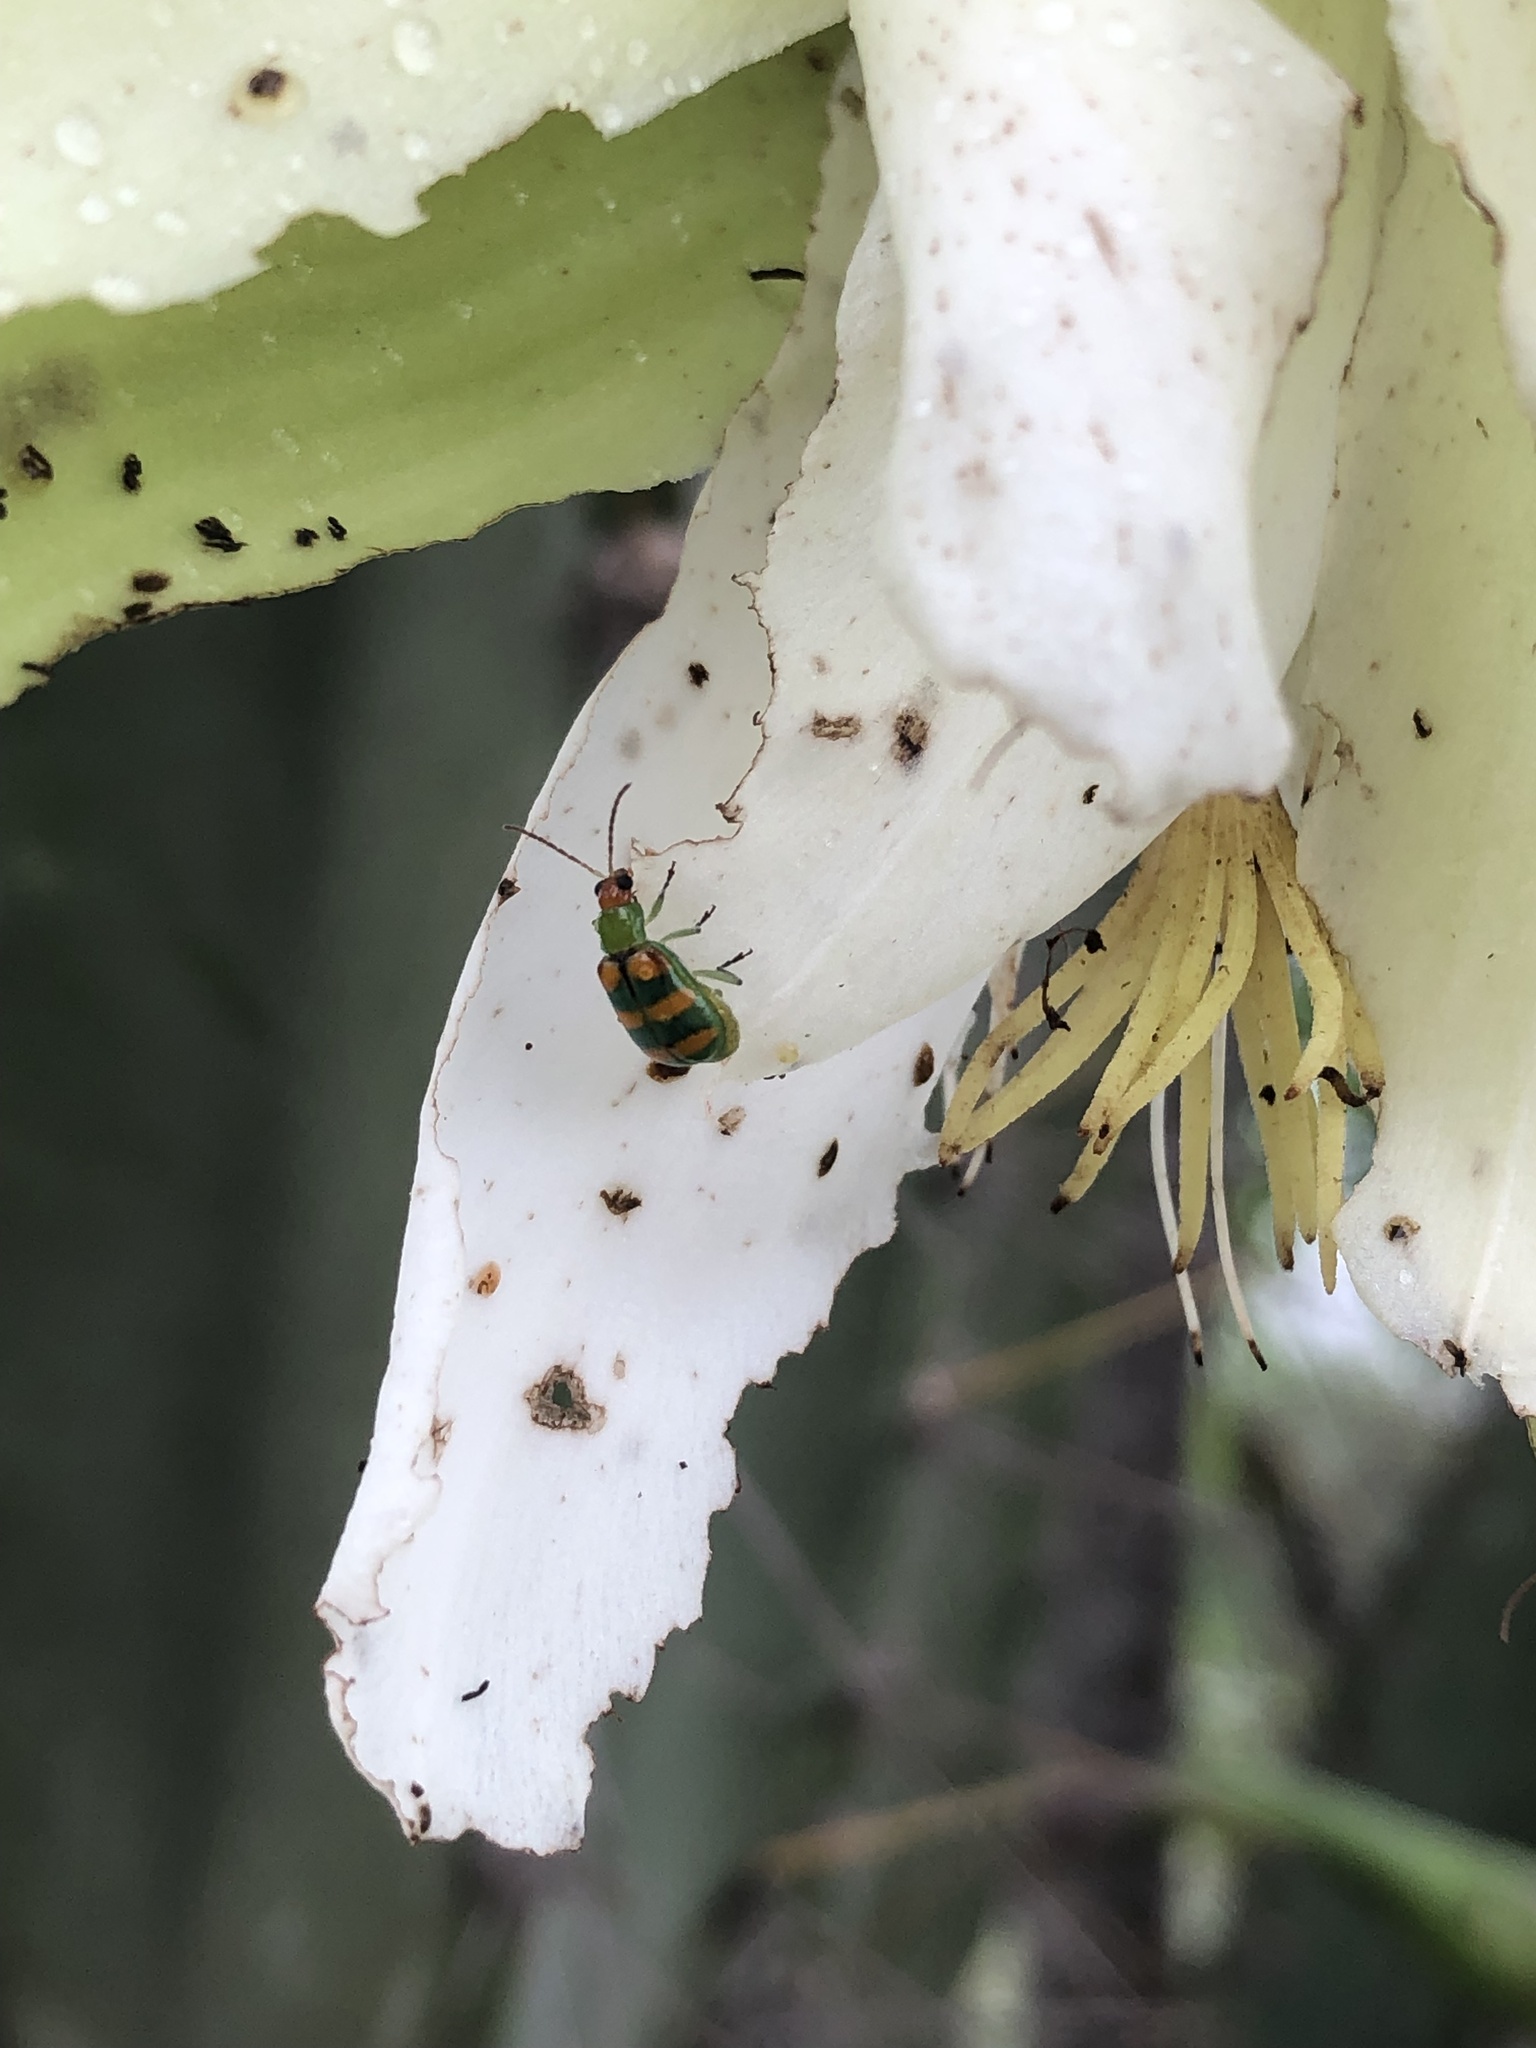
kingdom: Animalia
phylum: Arthropoda
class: Insecta
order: Coleoptera
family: Chrysomelidae
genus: Diabrotica
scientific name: Diabrotica speciosa
